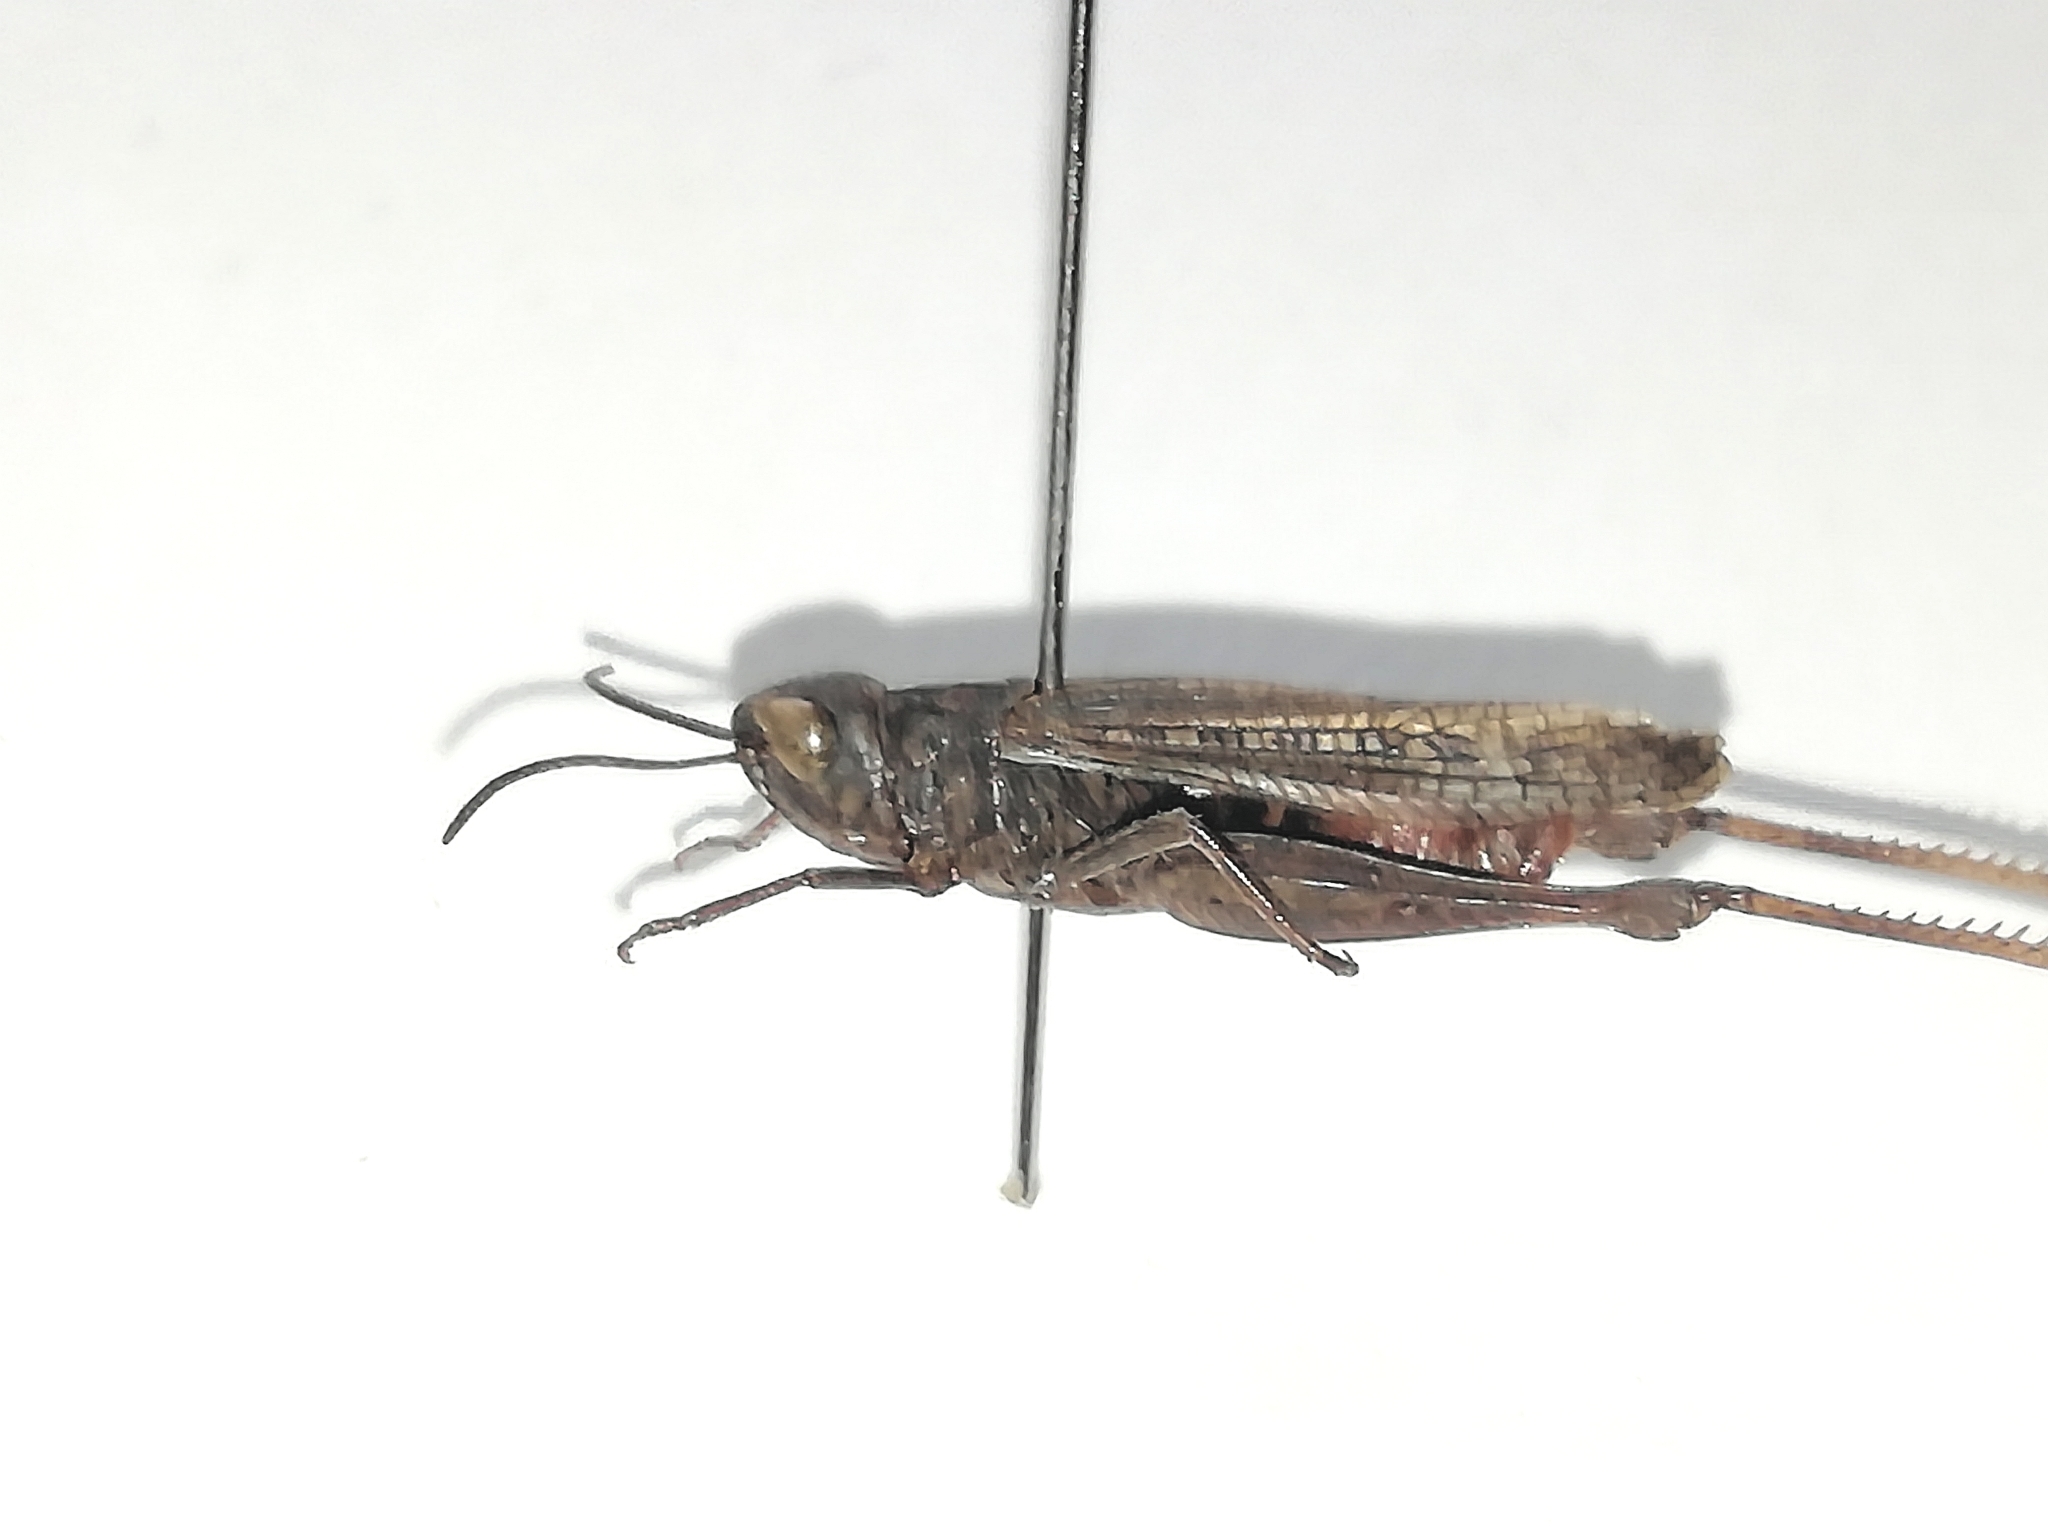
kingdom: Animalia
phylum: Arthropoda
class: Insecta
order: Orthoptera
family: Acrididae
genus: Omocestus
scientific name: Omocestus rufipes
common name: Woodland grasshopper
